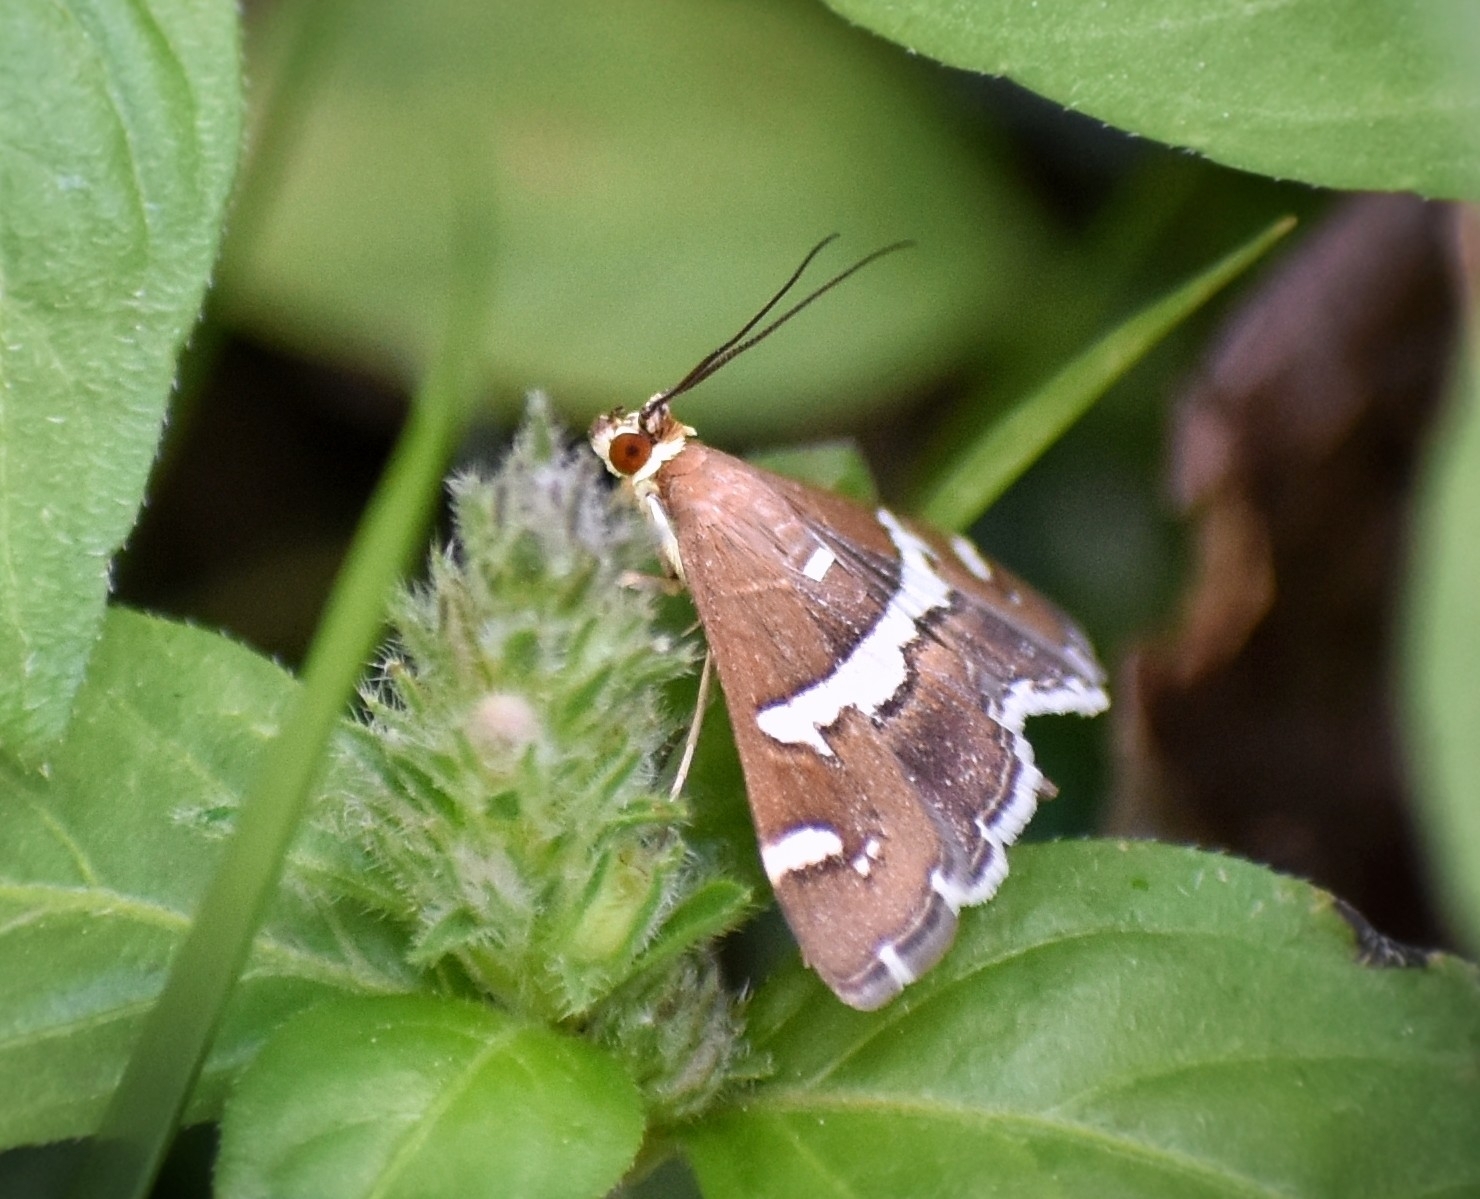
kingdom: Animalia
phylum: Arthropoda
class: Insecta
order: Lepidoptera
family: Crambidae
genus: Spoladea
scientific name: Spoladea recurvalis
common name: Beet webworm moth
